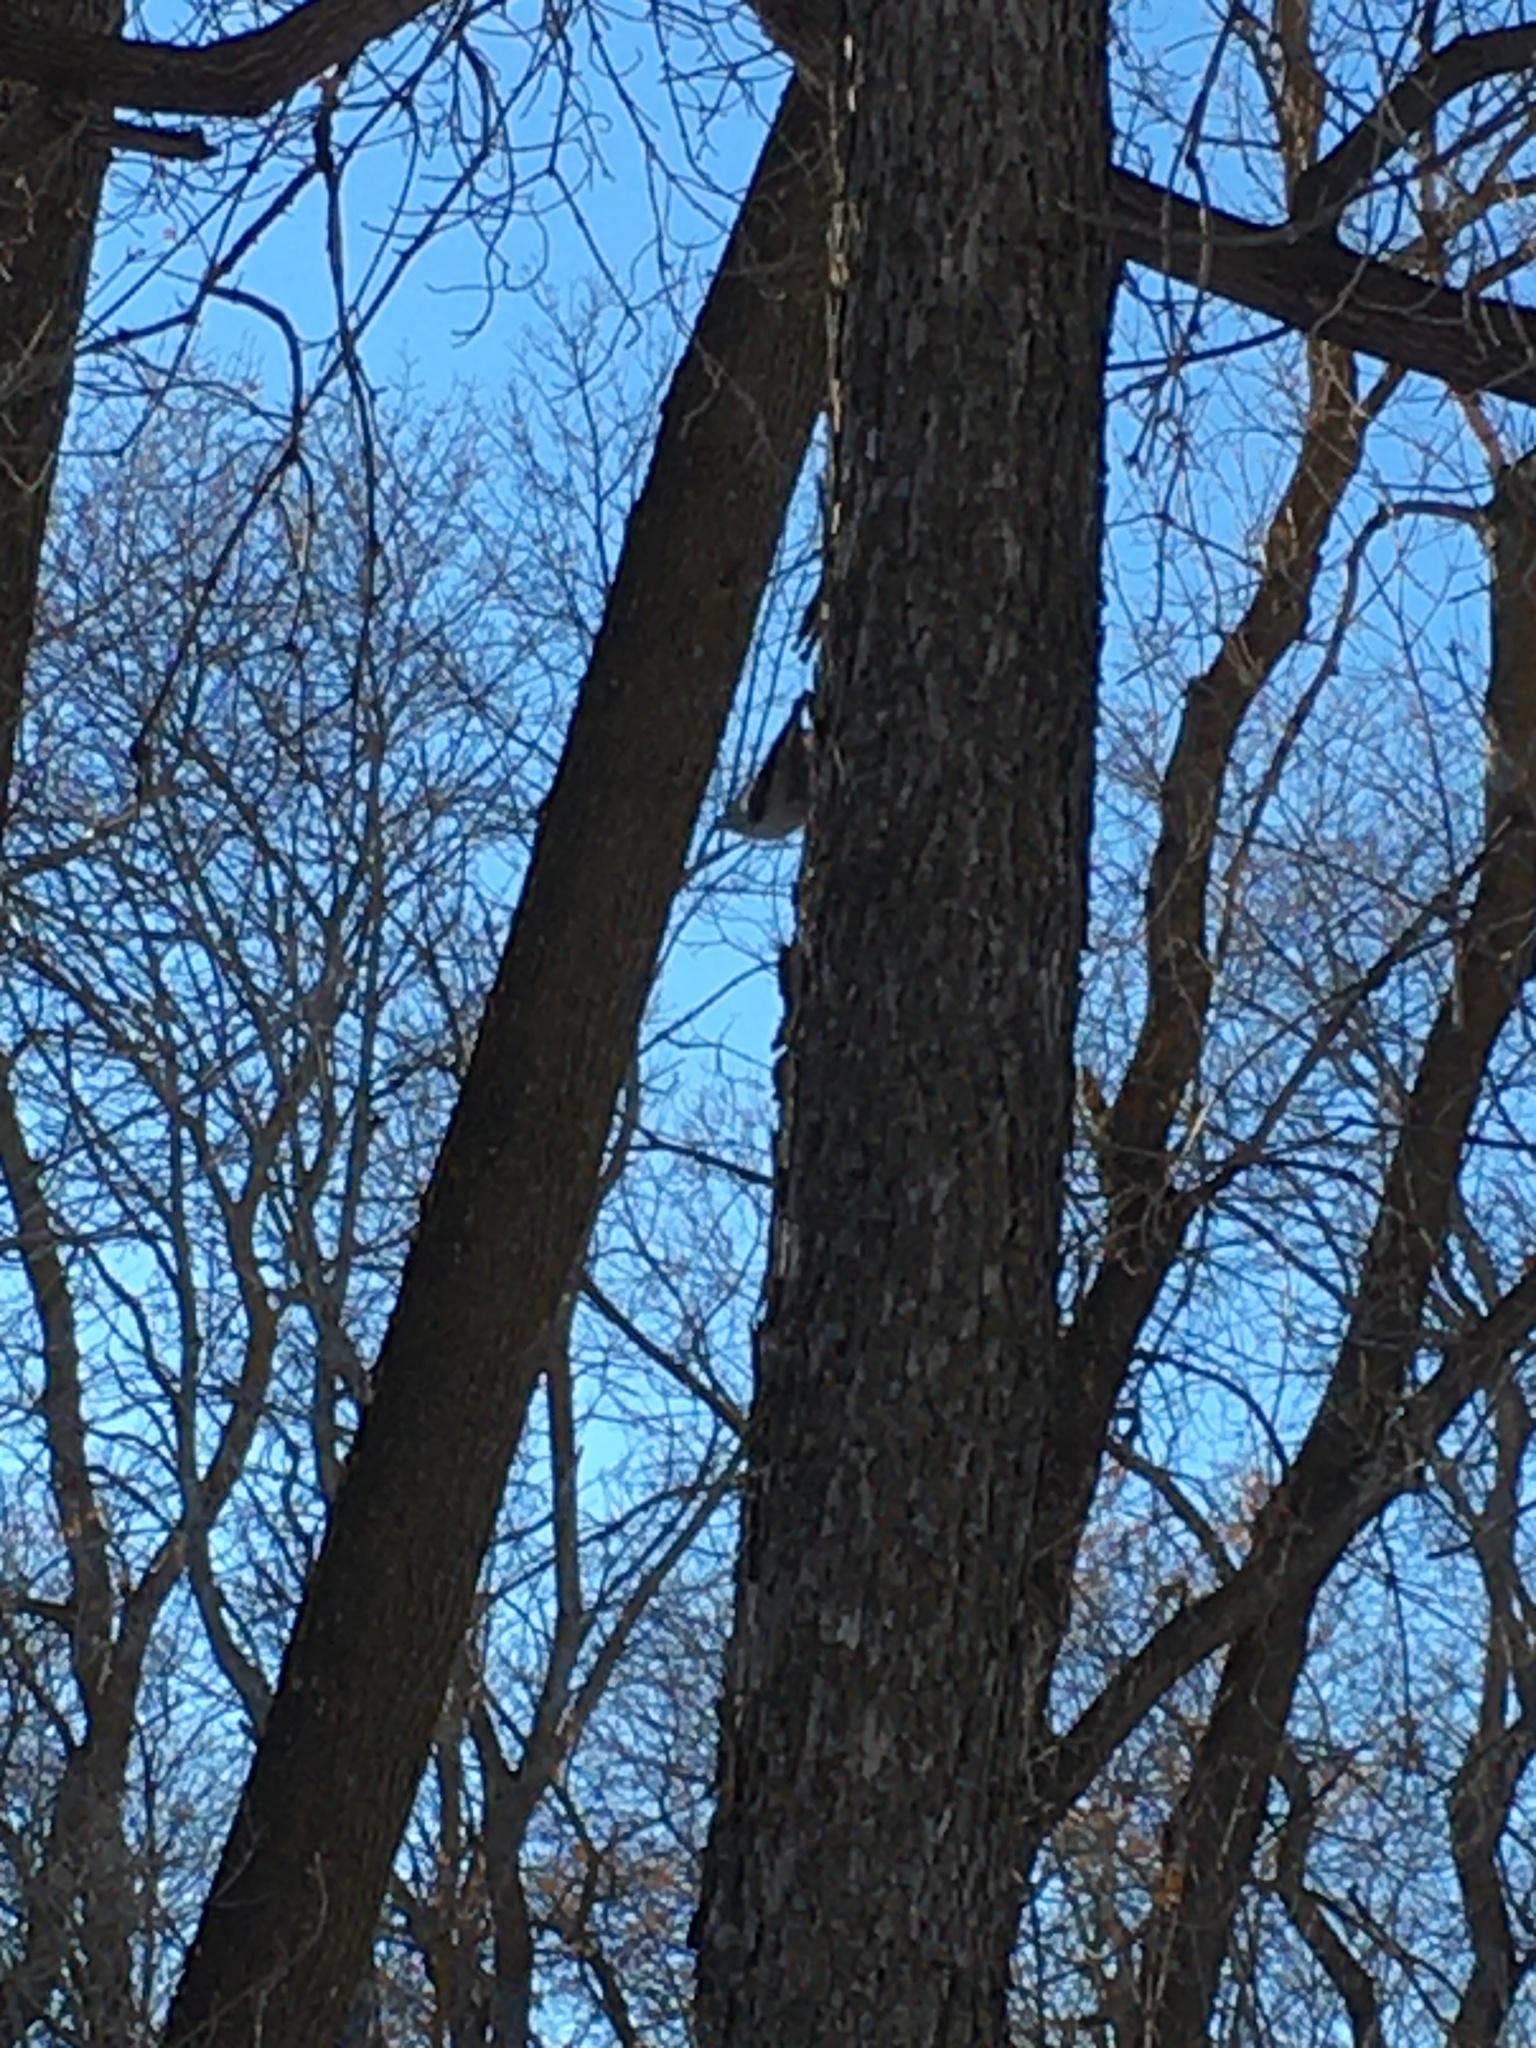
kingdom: Animalia
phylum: Chordata
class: Aves
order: Passeriformes
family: Sittidae
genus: Sitta
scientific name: Sitta carolinensis
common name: White-breasted nuthatch
